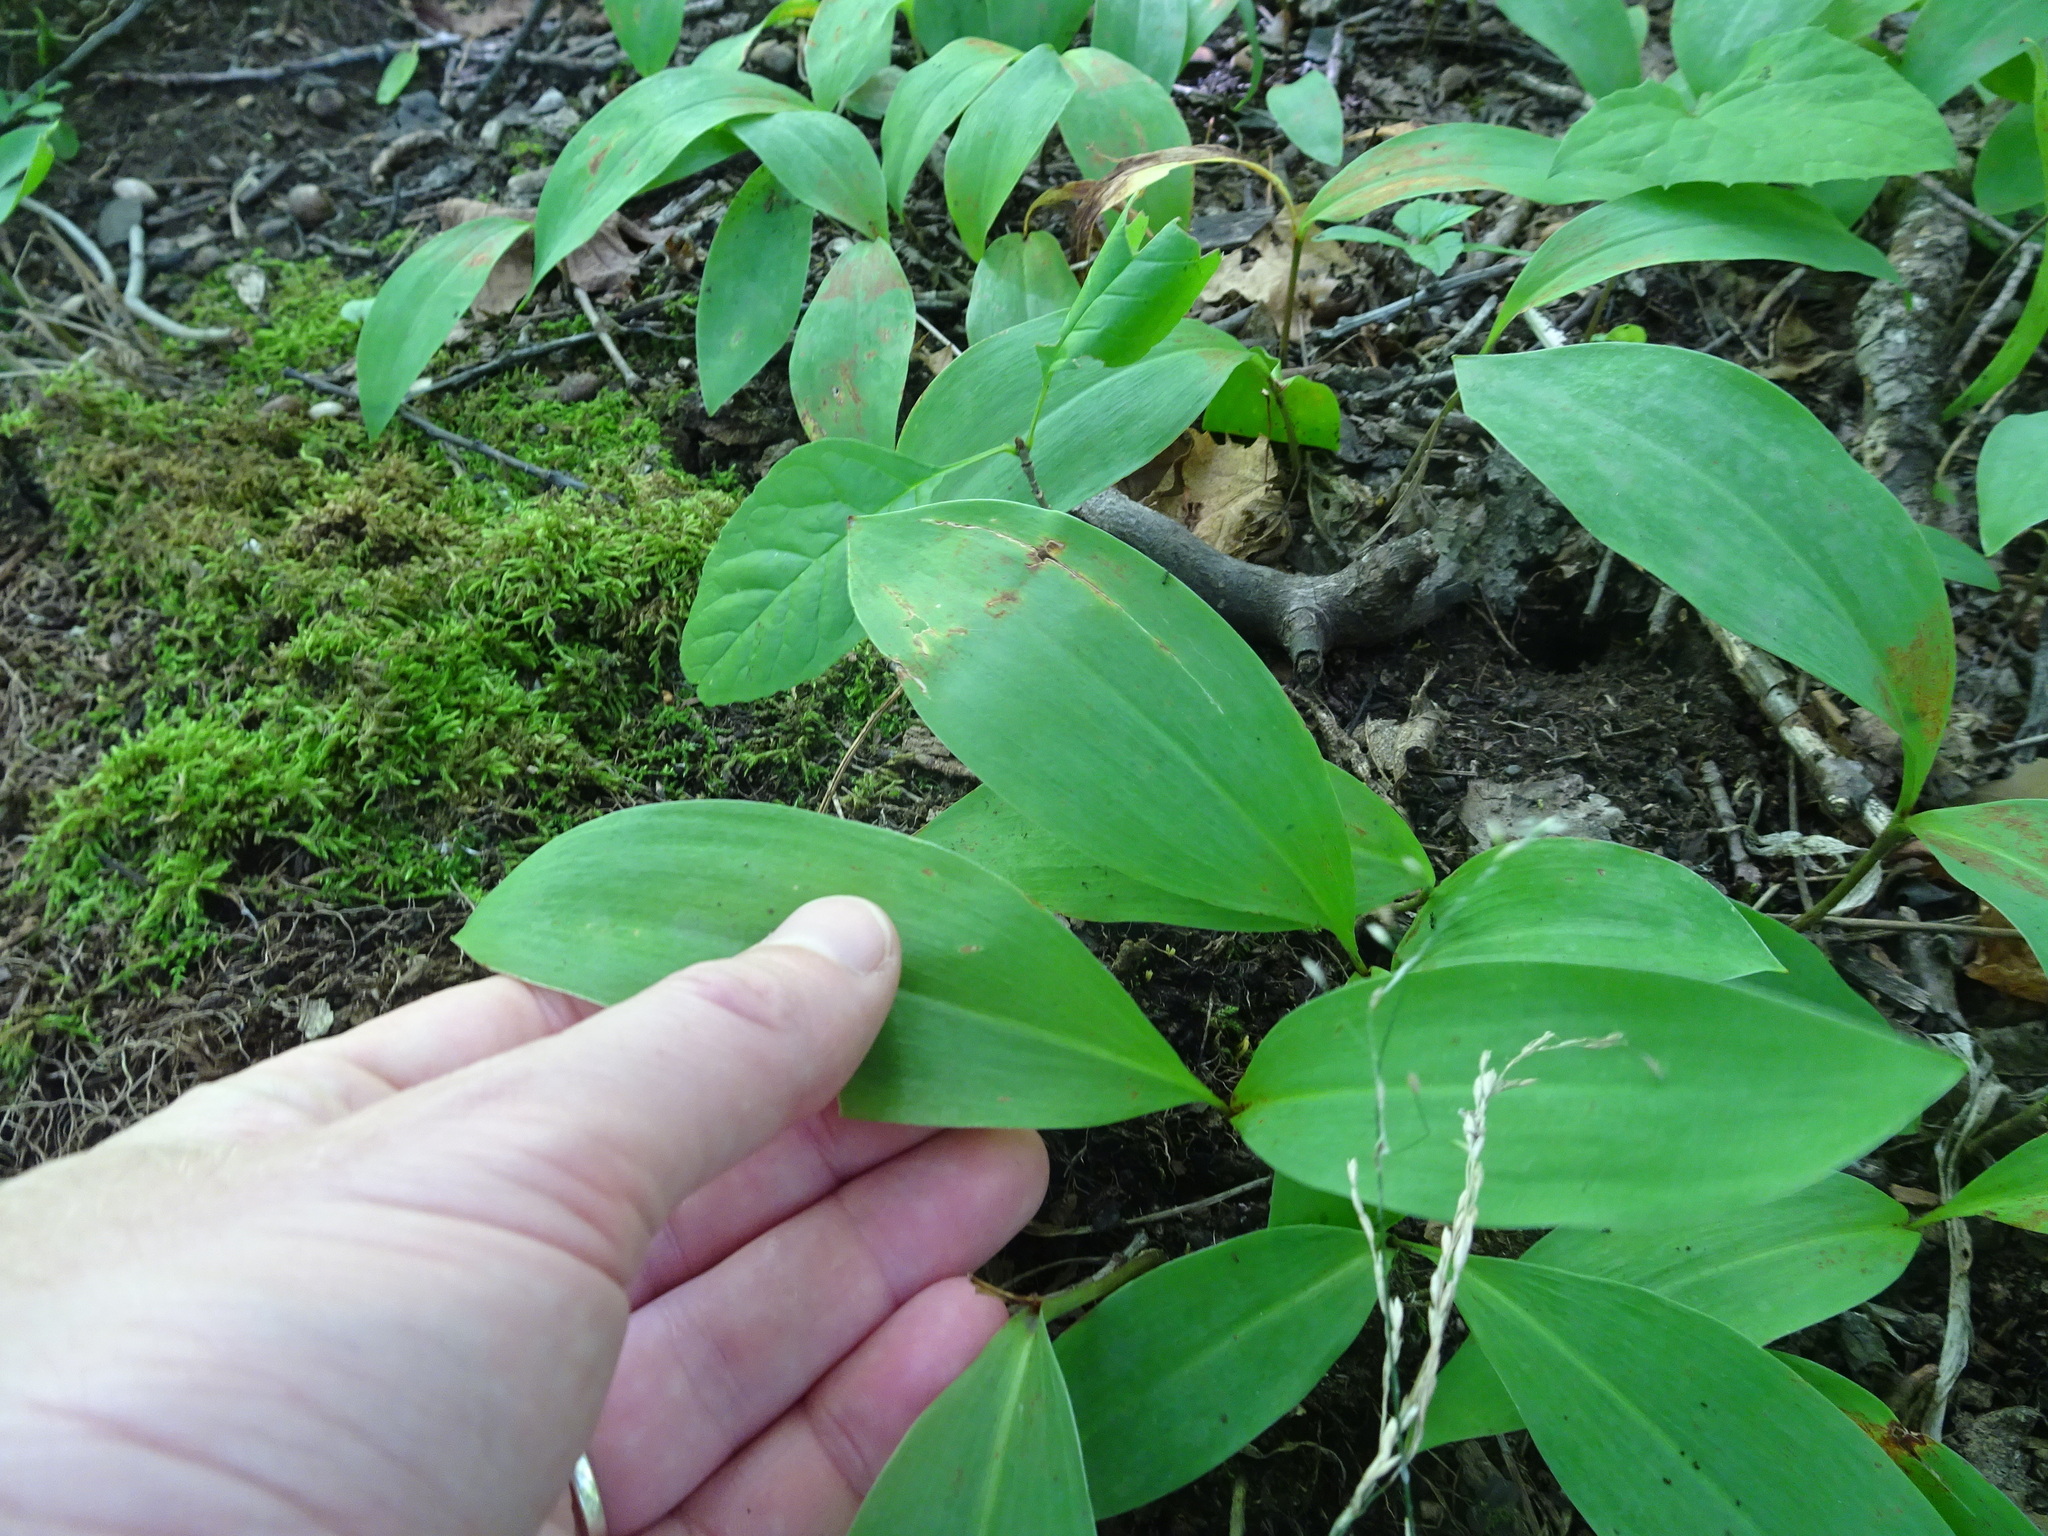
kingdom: Plantae
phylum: Tracheophyta
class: Liliopsida
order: Liliales
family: Liliaceae
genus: Clintonia
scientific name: Clintonia borealis
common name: Yellow clintonia
